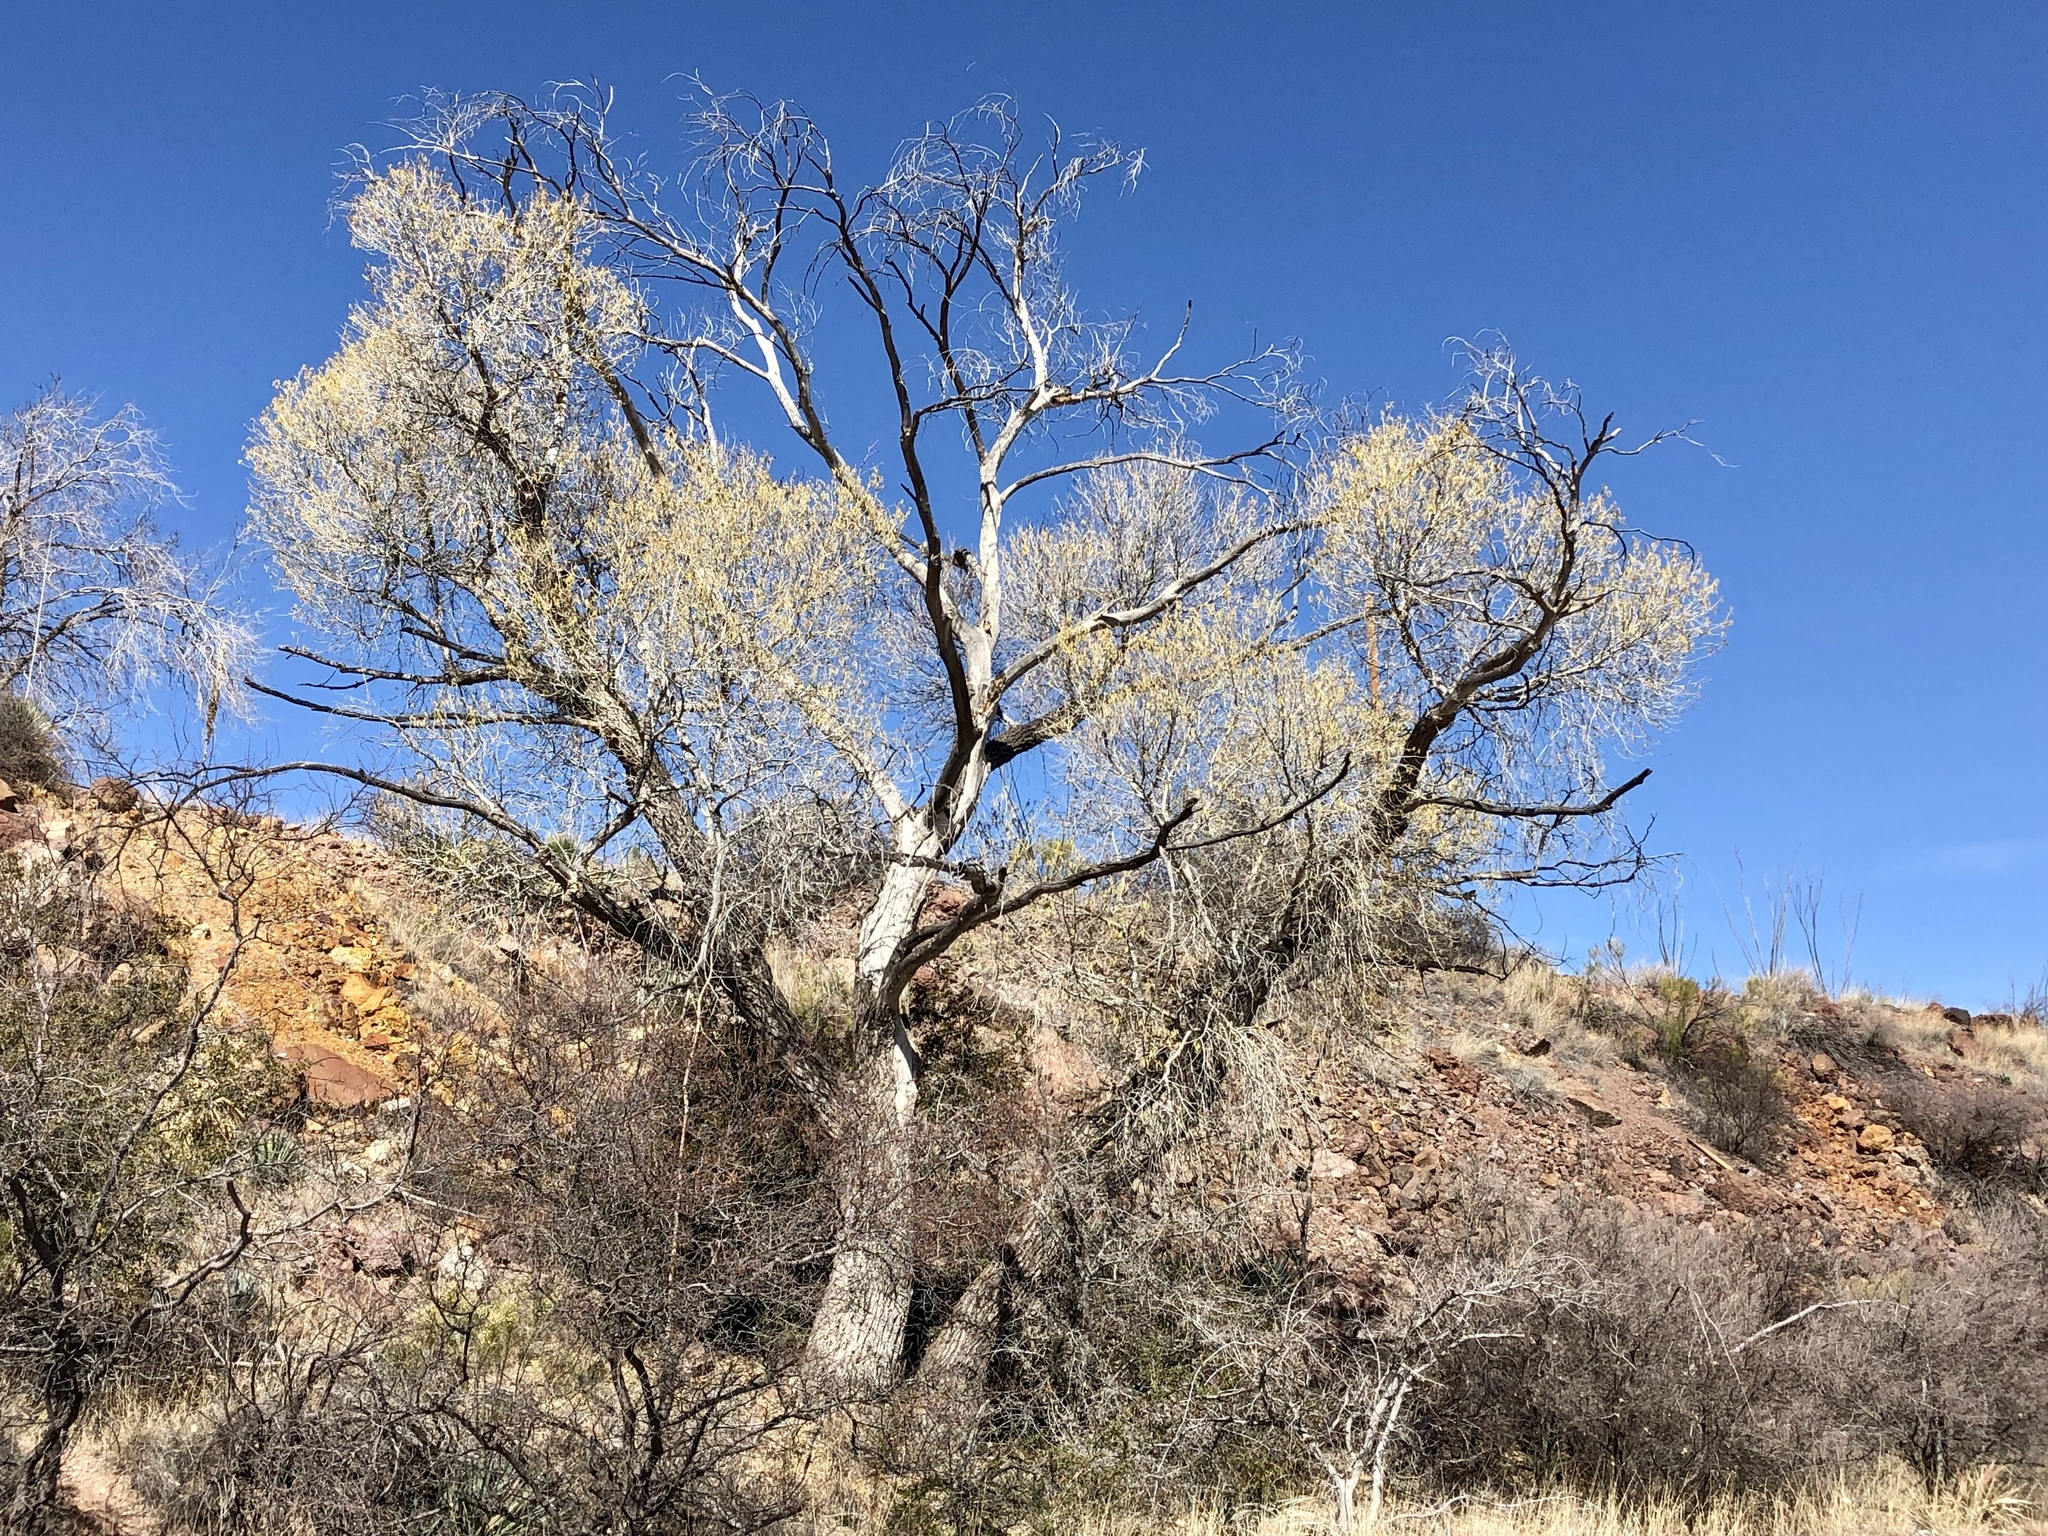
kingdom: Plantae
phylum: Tracheophyta
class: Magnoliopsida
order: Malpighiales
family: Salicaceae
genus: Populus
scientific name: Populus fremontii
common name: Fremont's cottonwood
